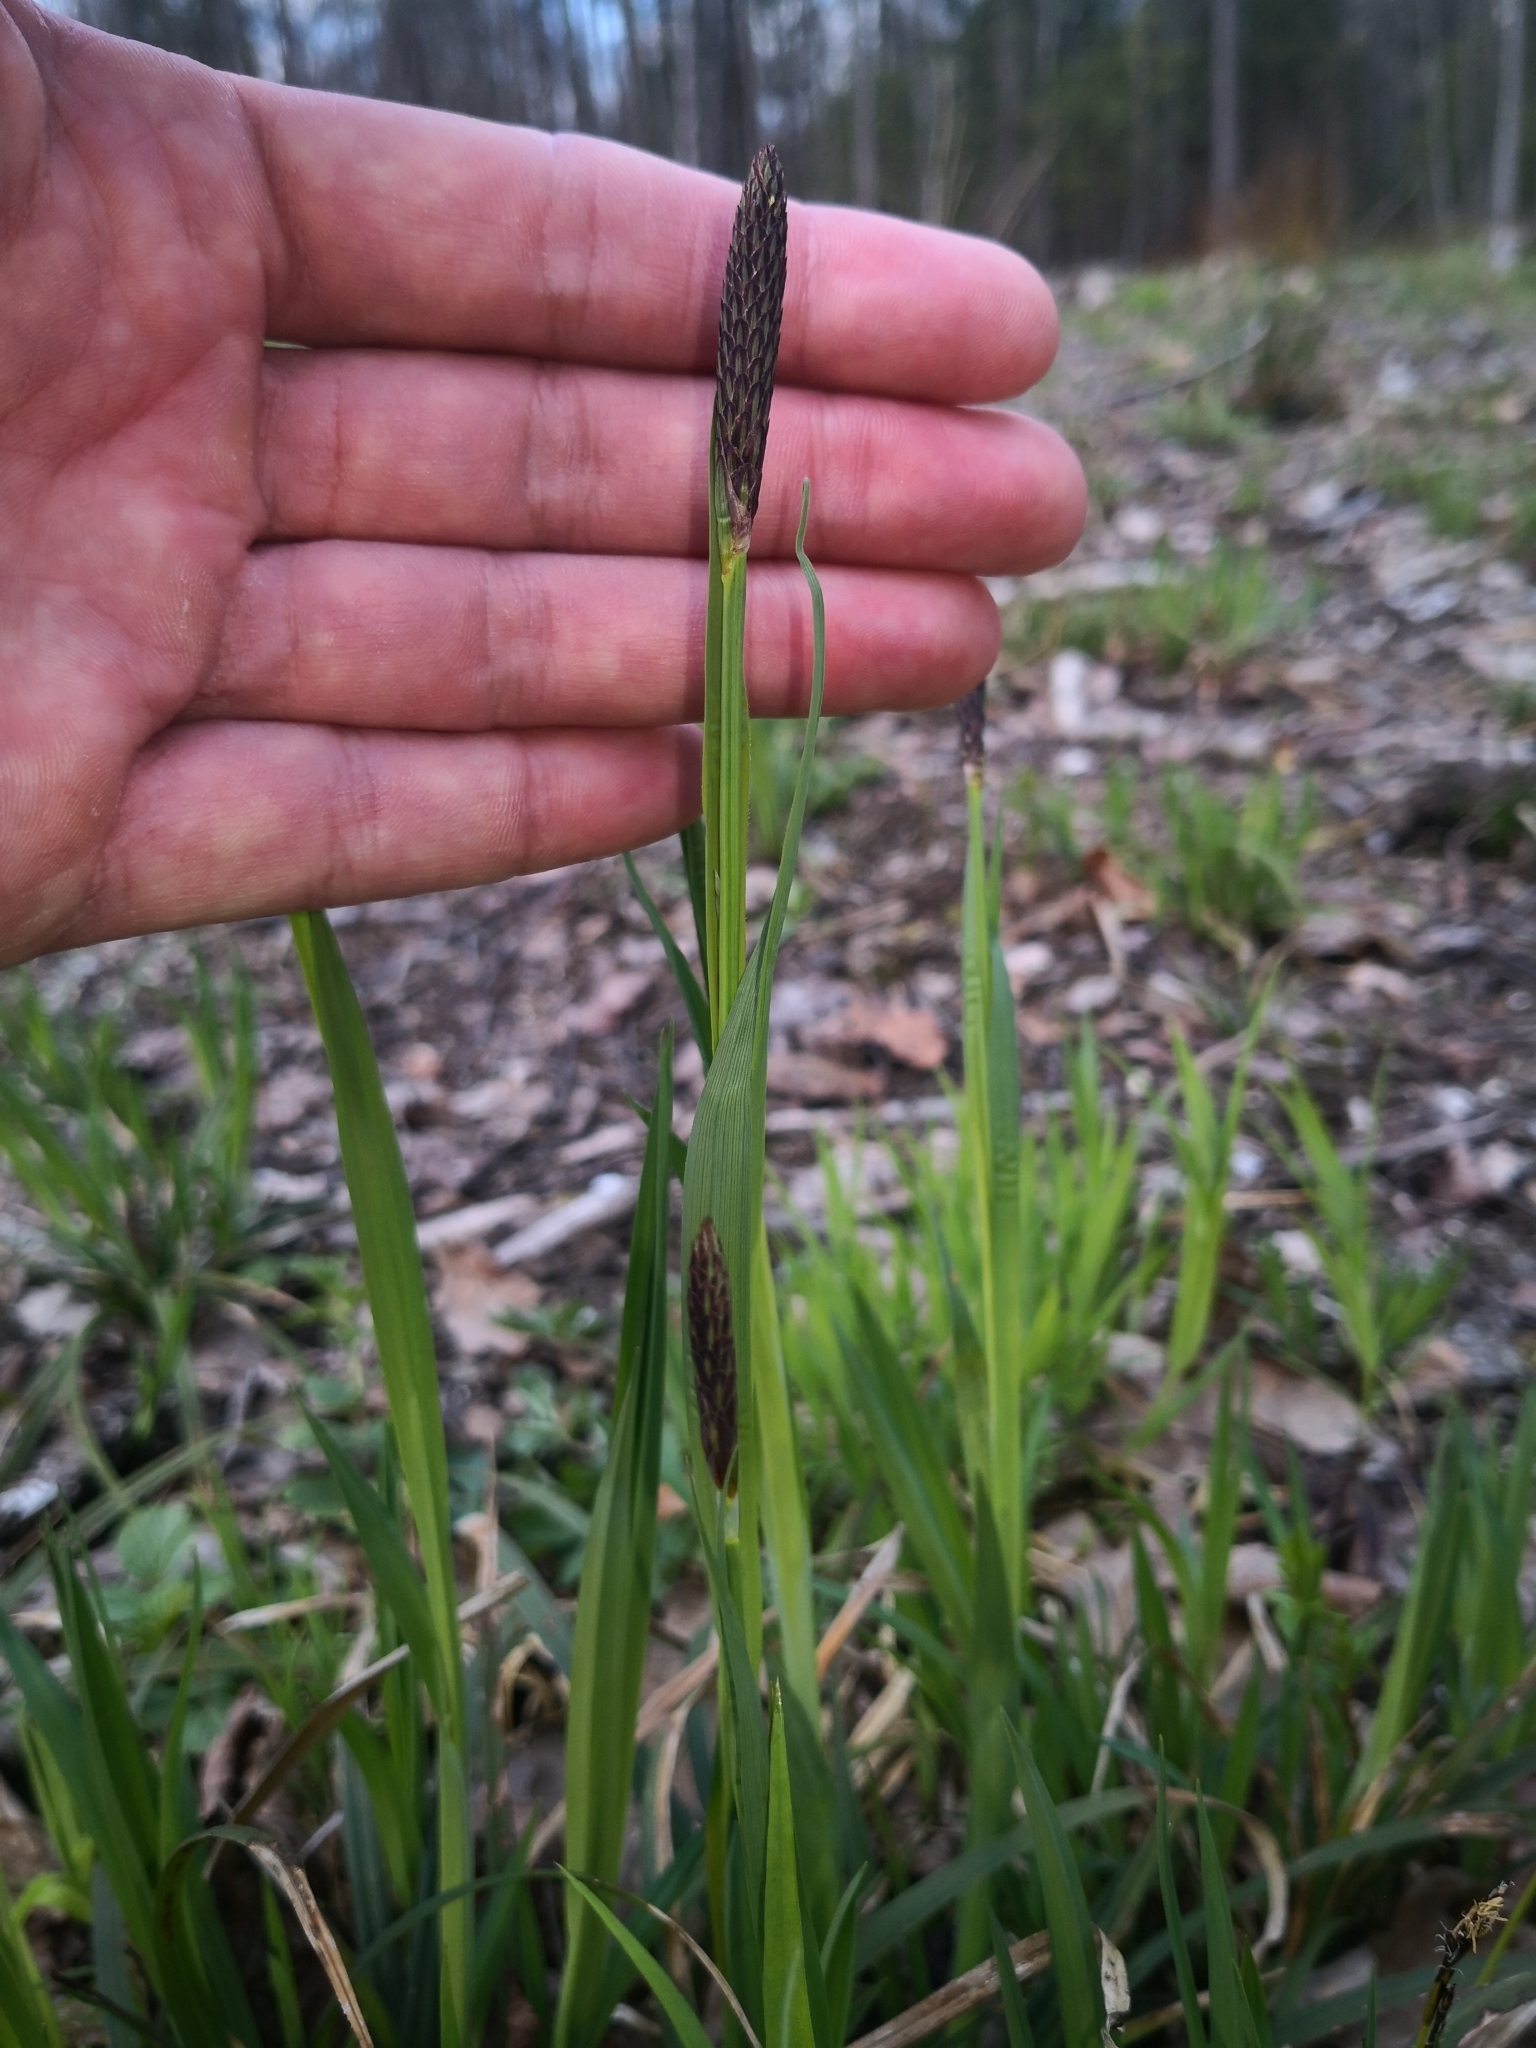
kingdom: Plantae
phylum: Tracheophyta
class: Liliopsida
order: Poales
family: Cyperaceae
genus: Carex
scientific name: Carex pilosa
